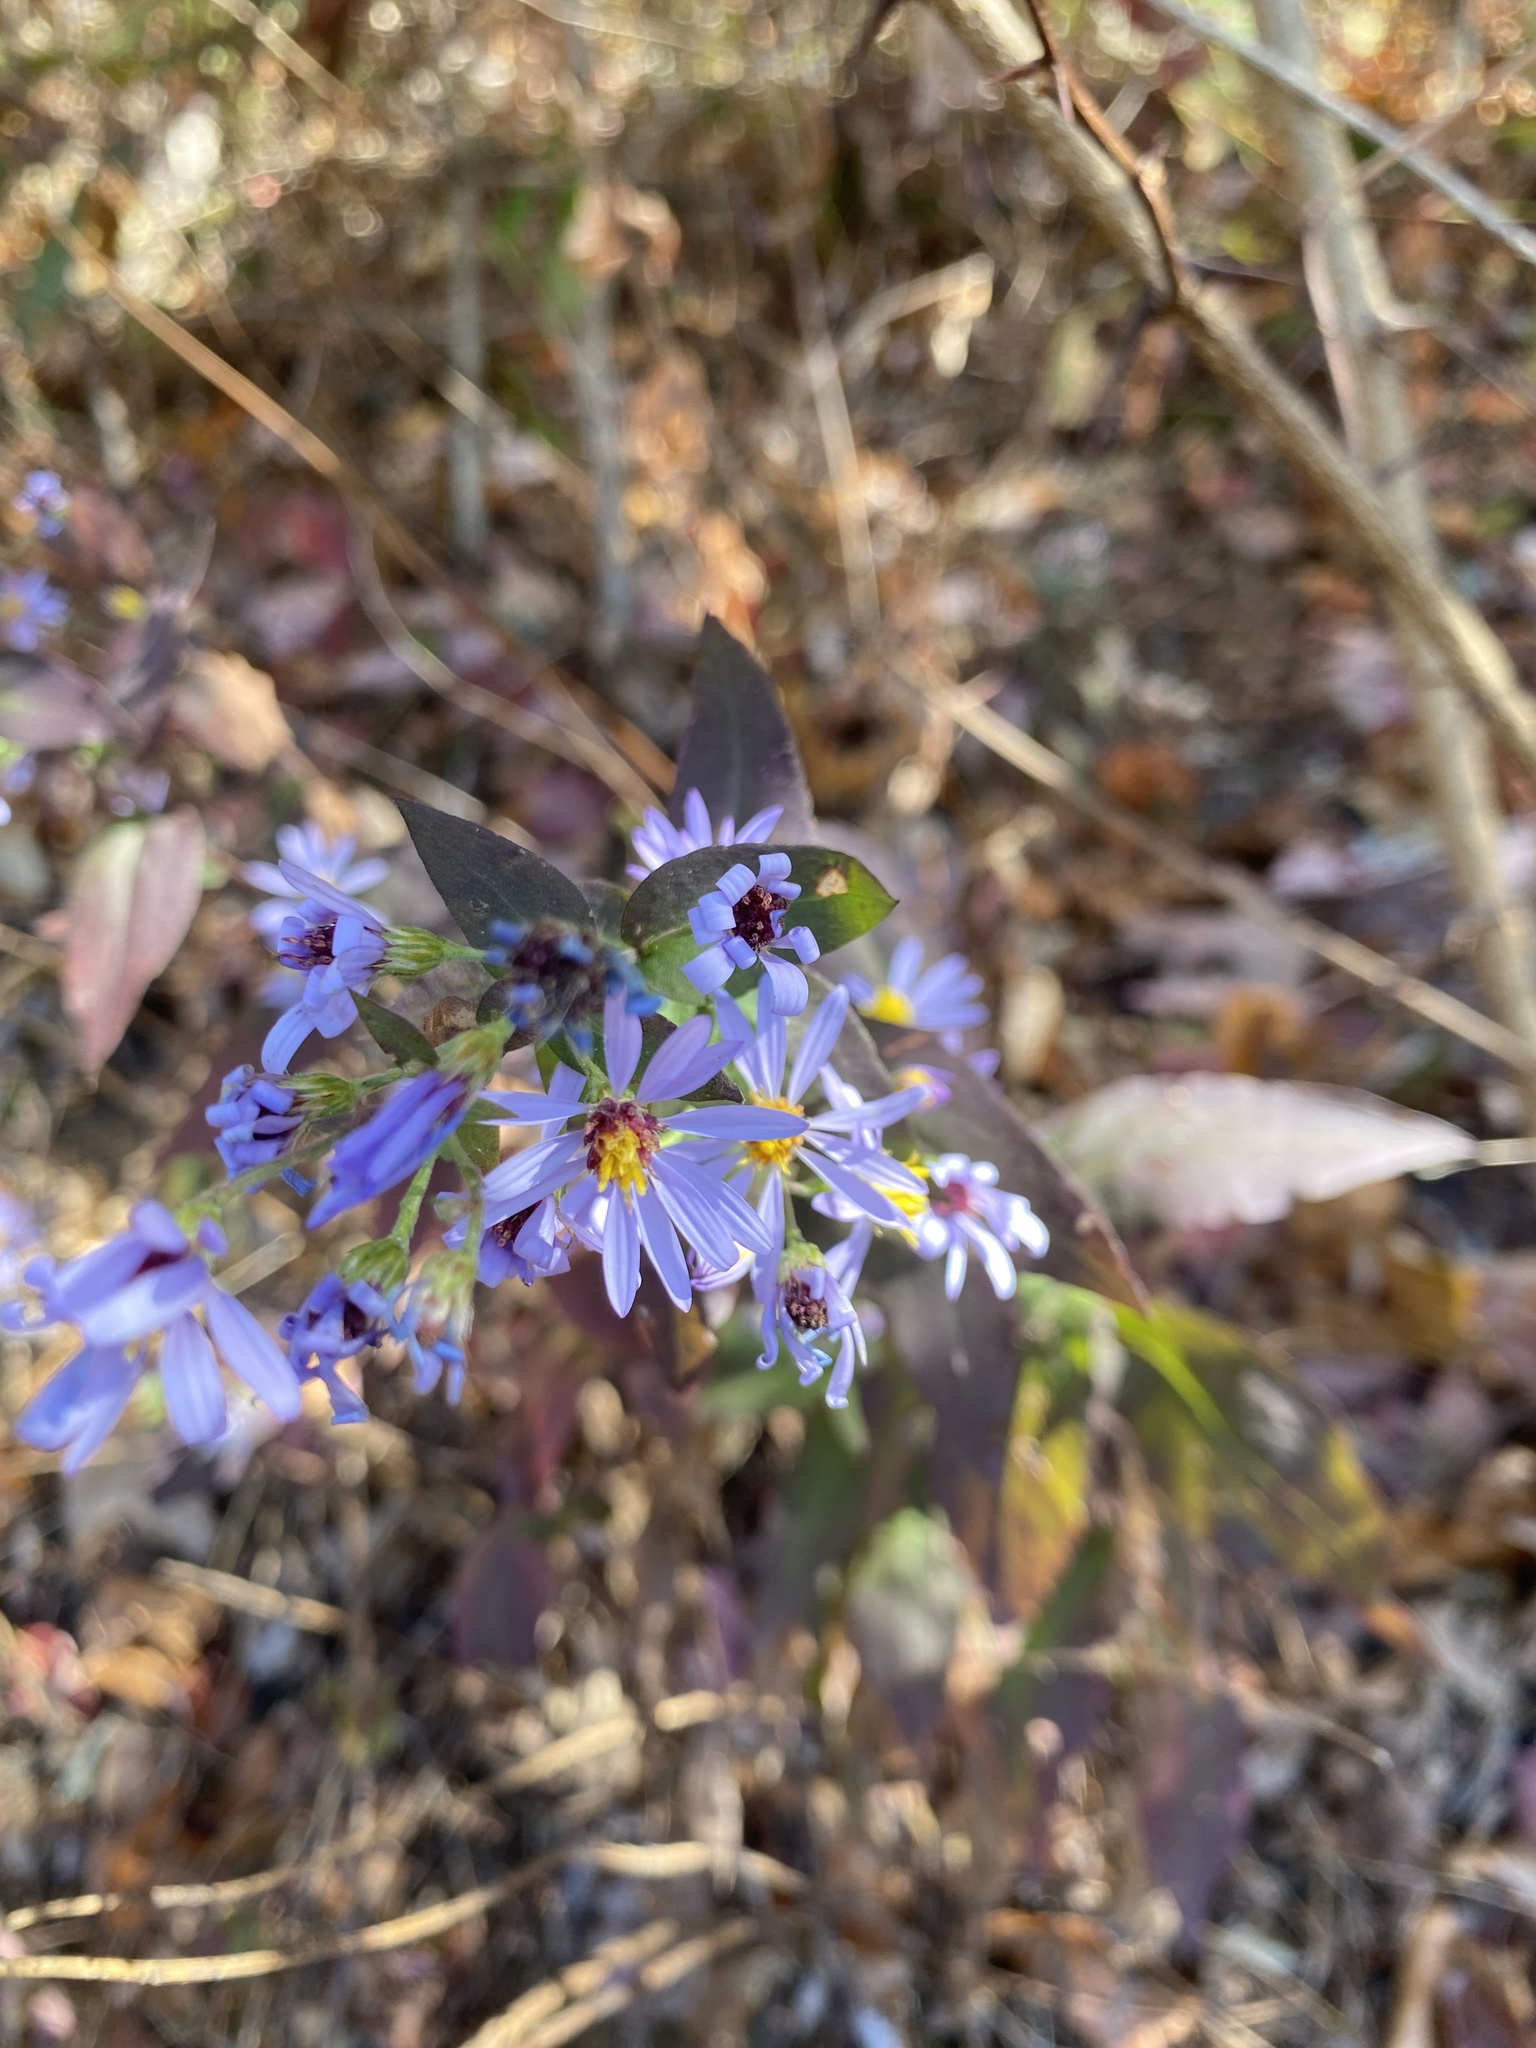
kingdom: Plantae
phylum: Tracheophyta
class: Magnoliopsida
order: Asterales
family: Asteraceae
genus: Symphyotrichum
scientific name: Symphyotrichum undulatum
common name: Clasping heart-leaf aster
